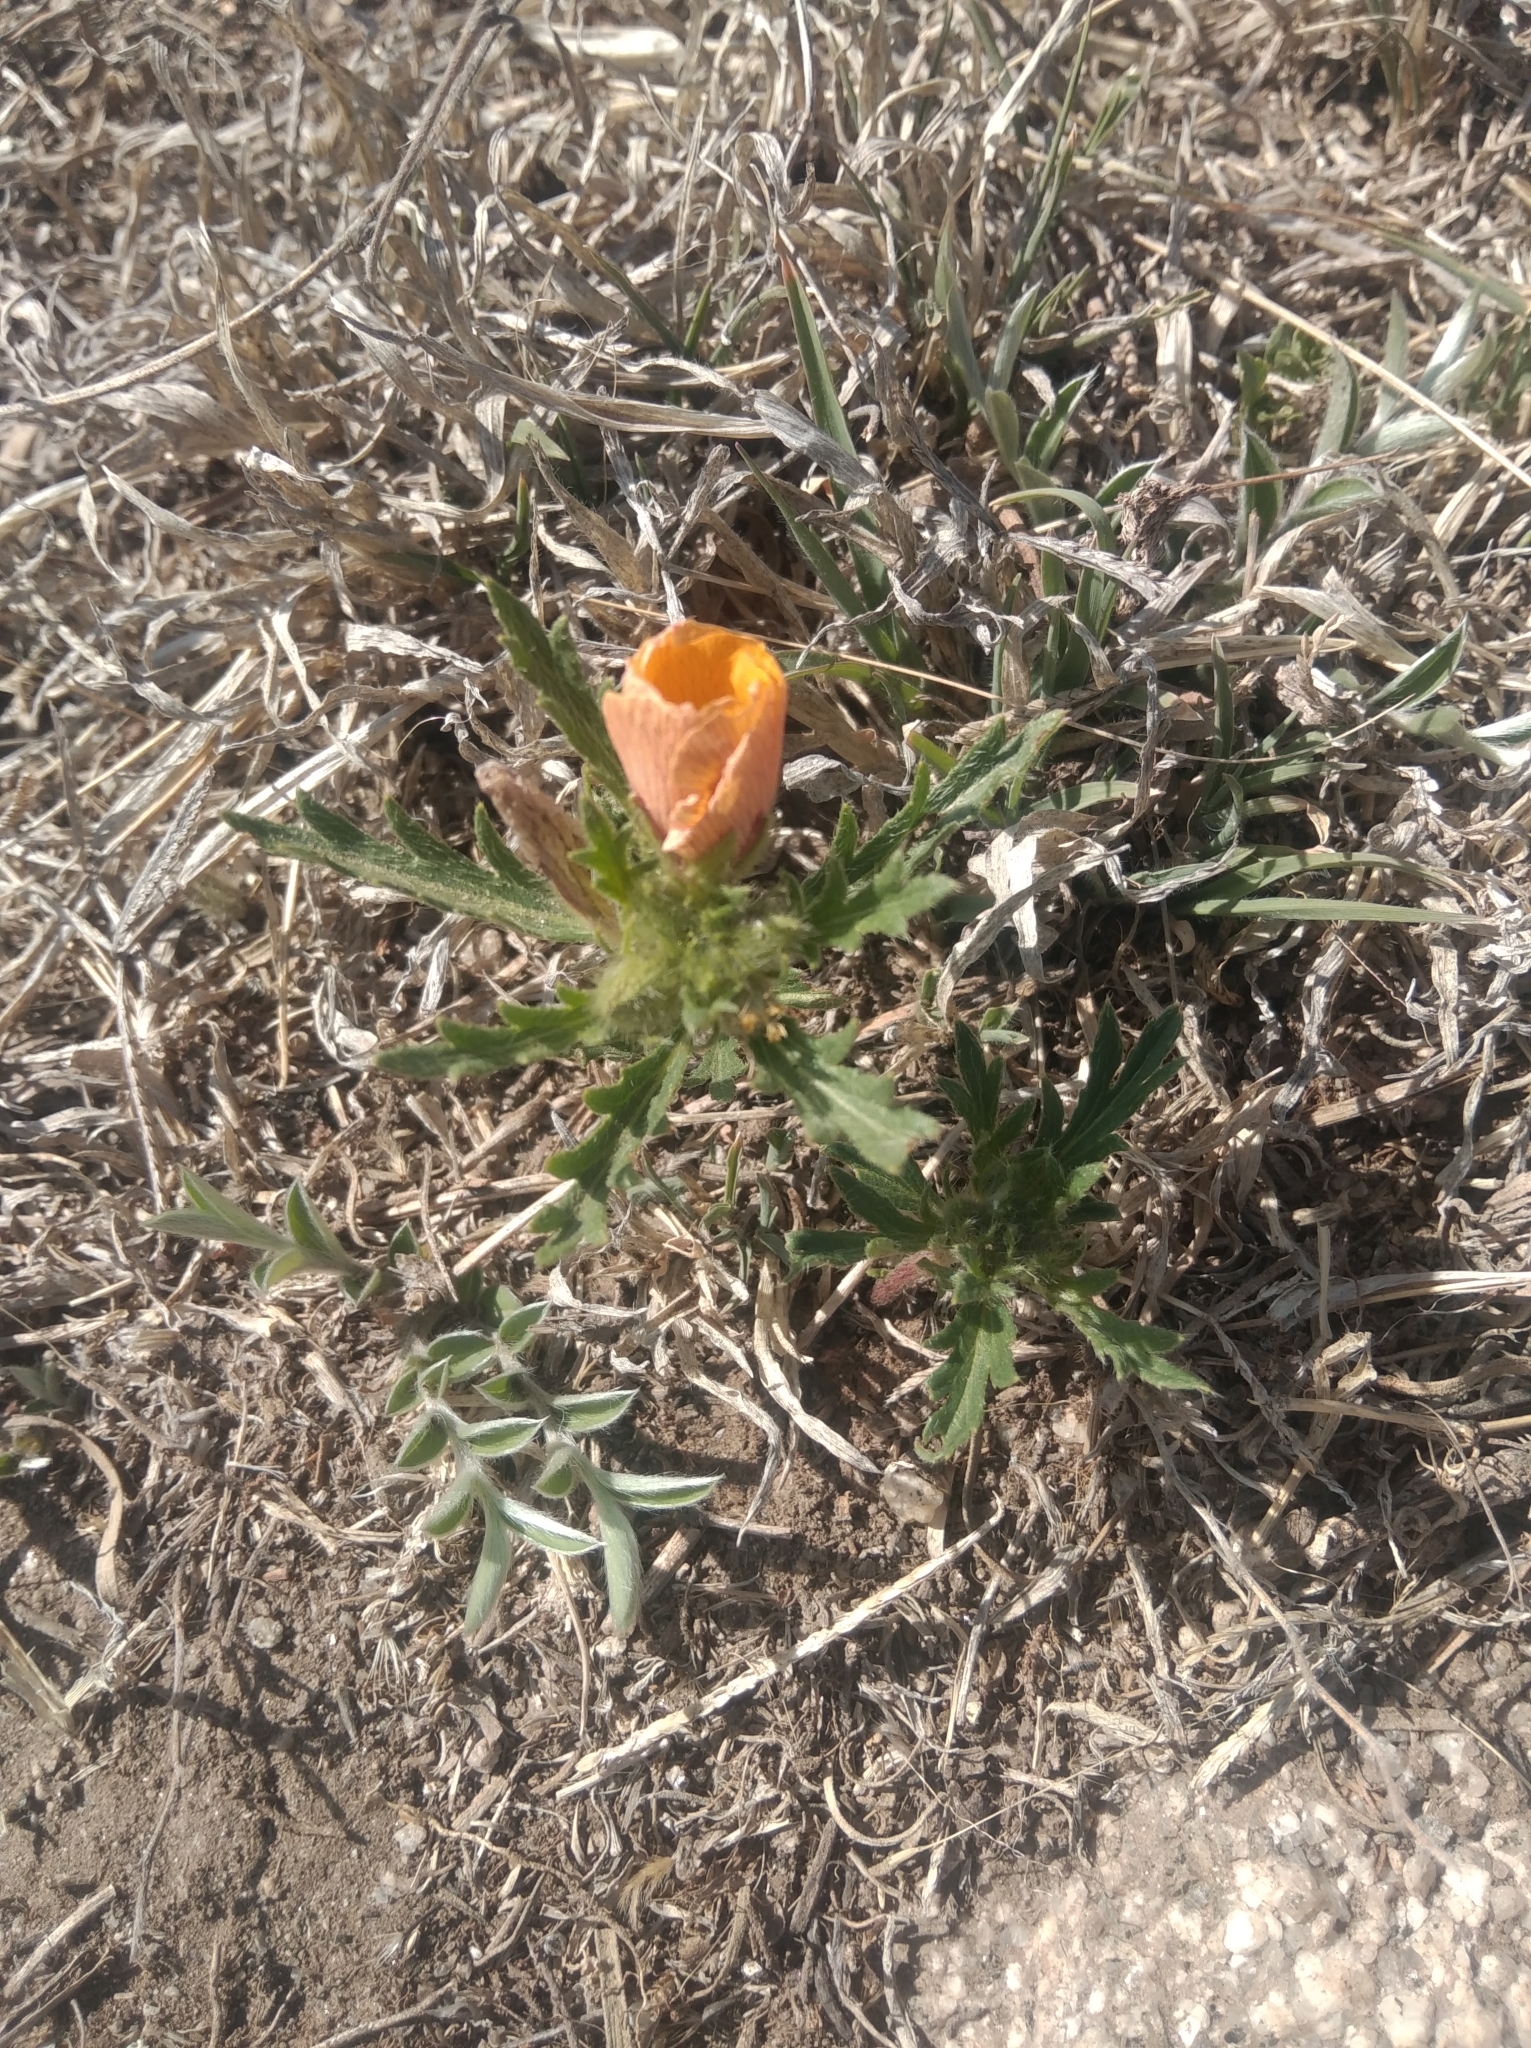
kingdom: Plantae
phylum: Tracheophyta
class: Magnoliopsida
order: Malpighiales
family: Turneraceae
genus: Turnera
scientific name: Turnera sidoides
